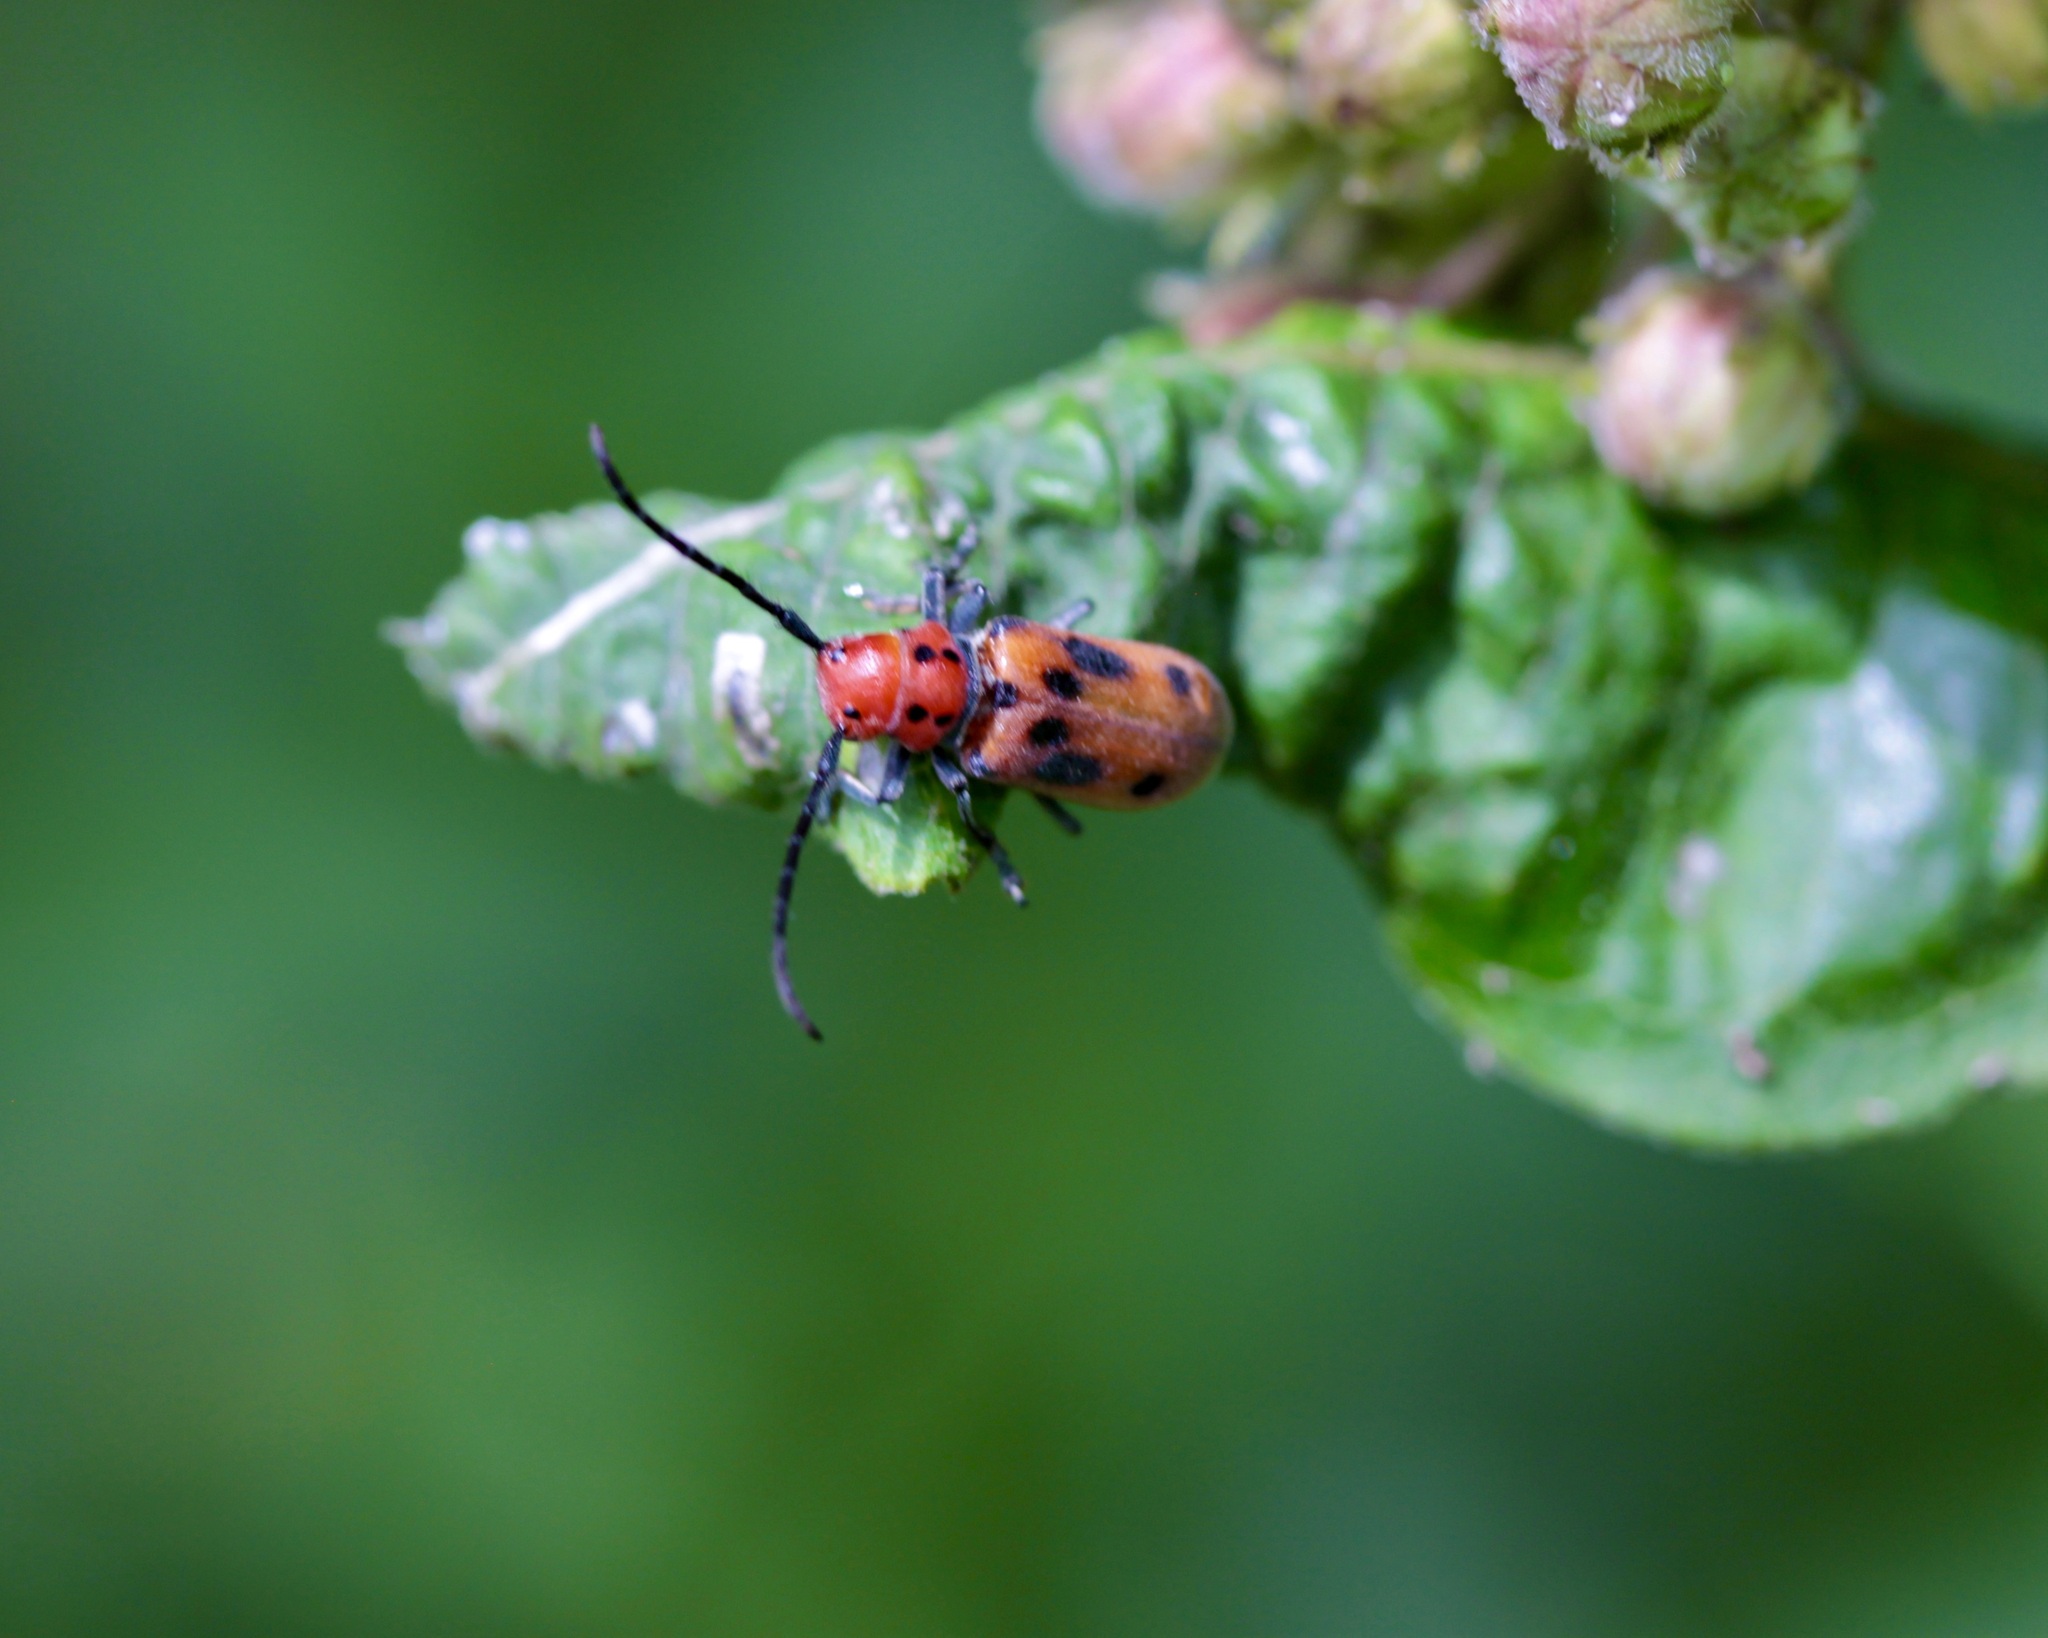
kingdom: Animalia
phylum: Arthropoda
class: Insecta
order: Coleoptera
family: Cerambycidae
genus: Tetraopes
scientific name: Tetraopes tetrophthalmus
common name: Red milkweed beetle
